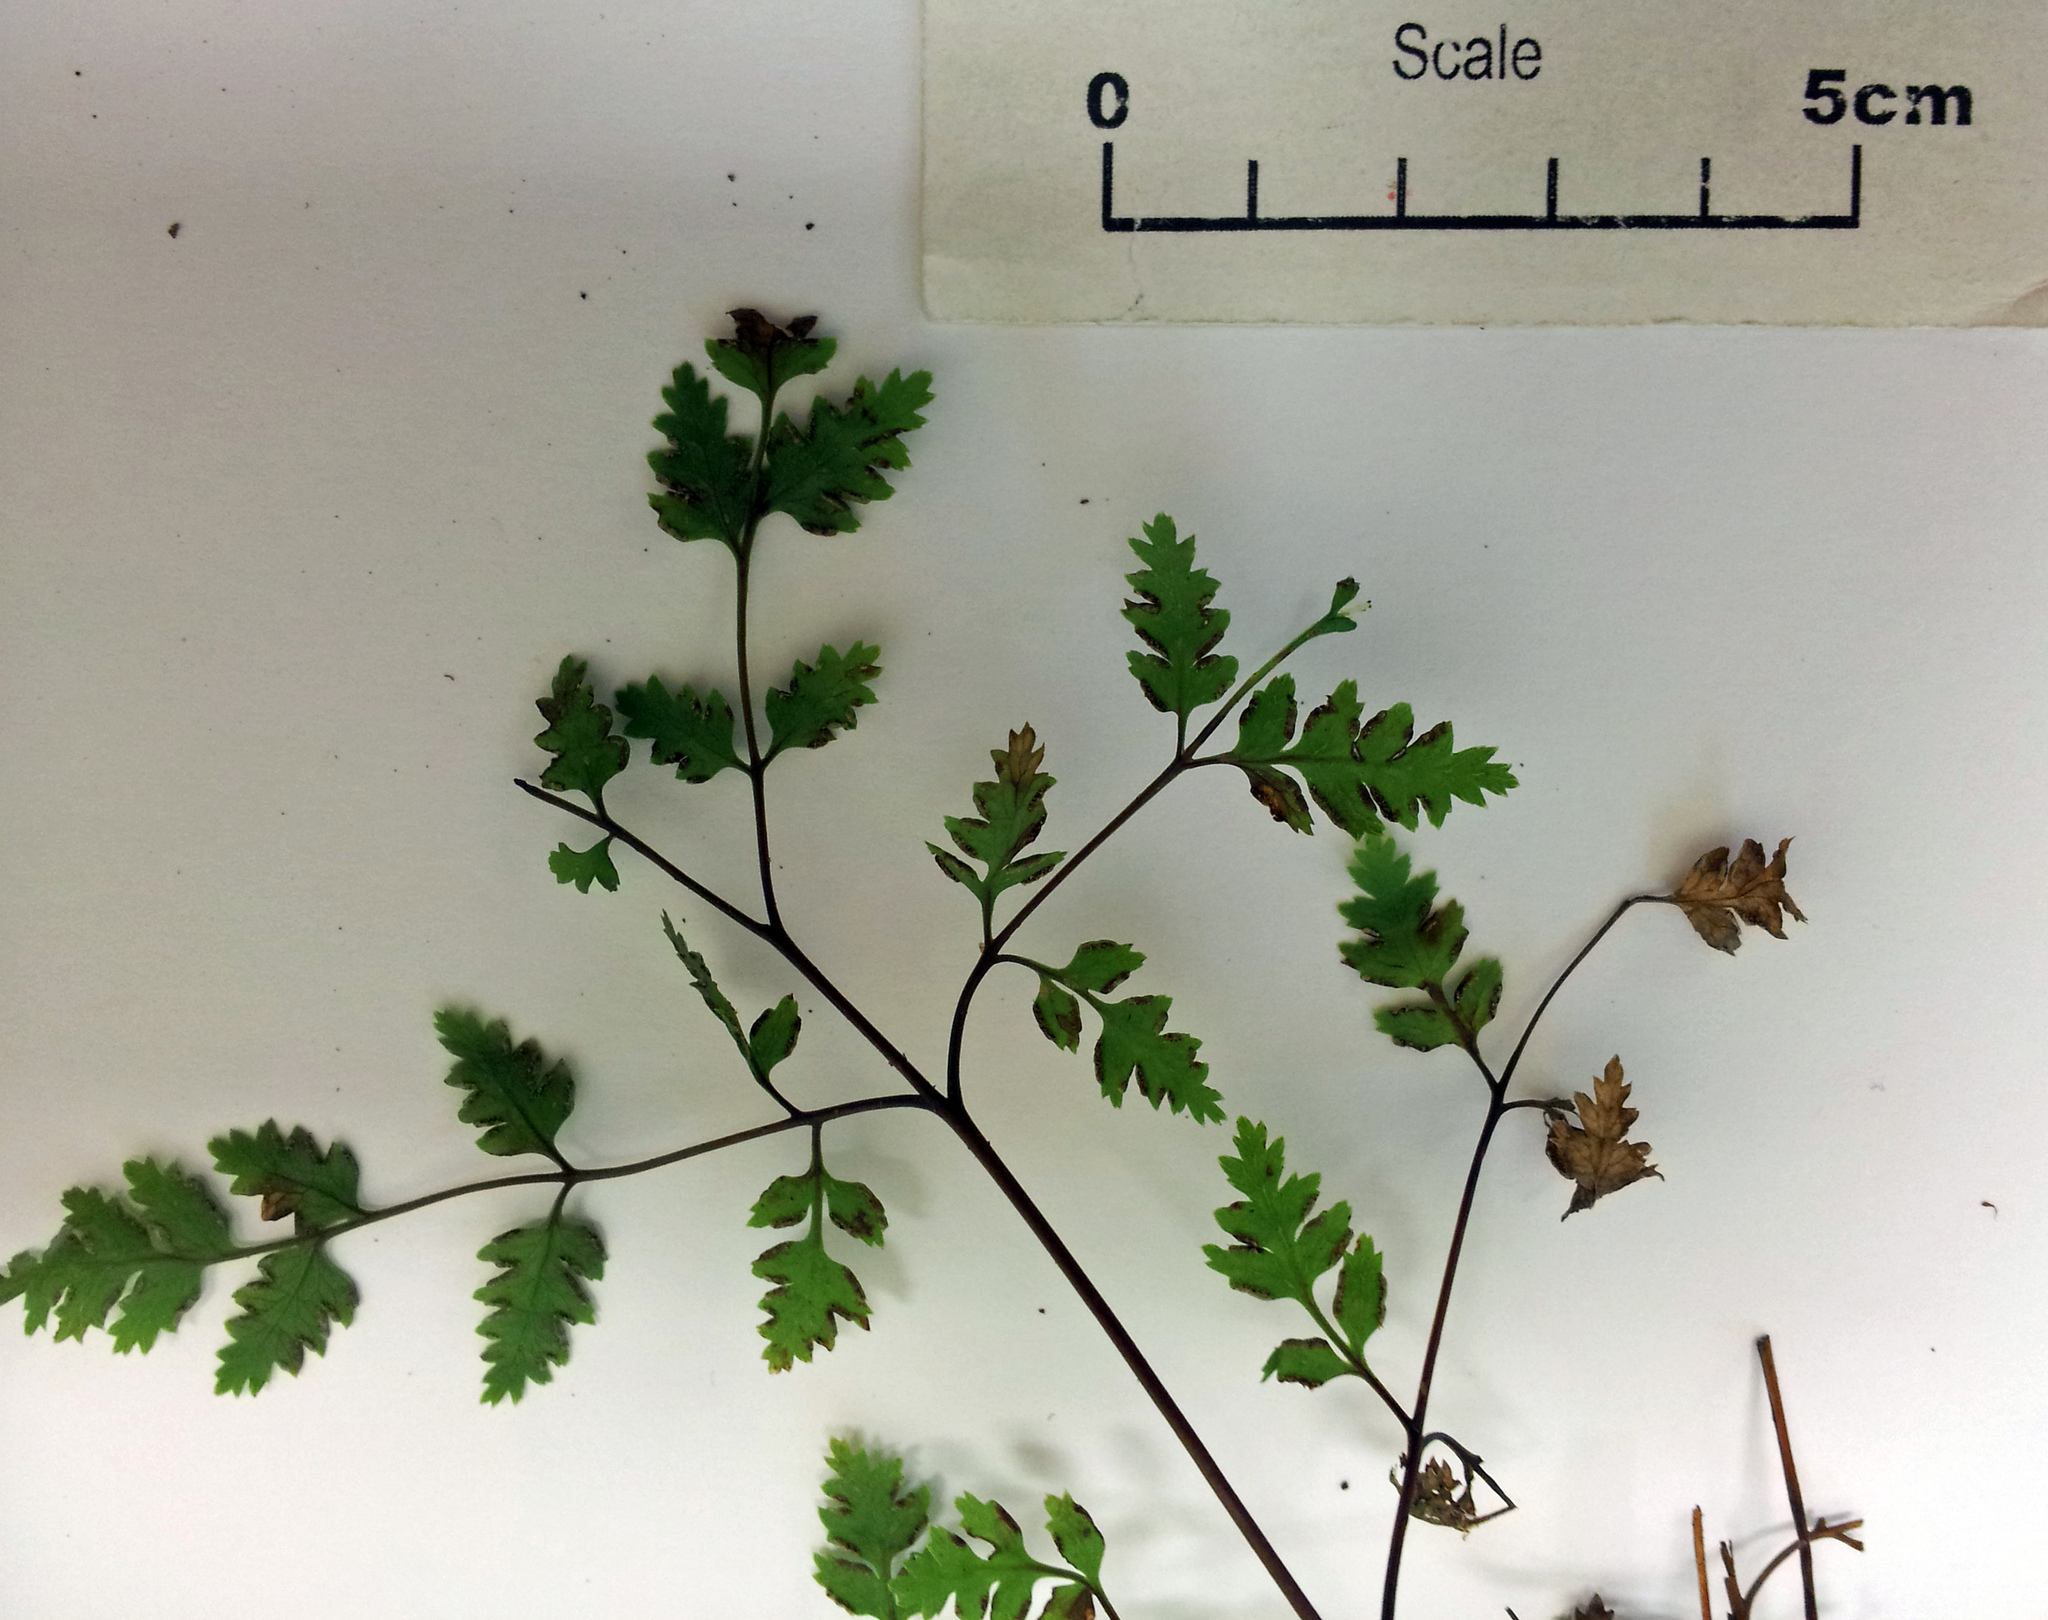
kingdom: Plantae
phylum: Tracheophyta
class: Polypodiopsida
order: Polypodiales
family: Pteridaceae
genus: Pteris
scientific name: Pteris saxatilis
